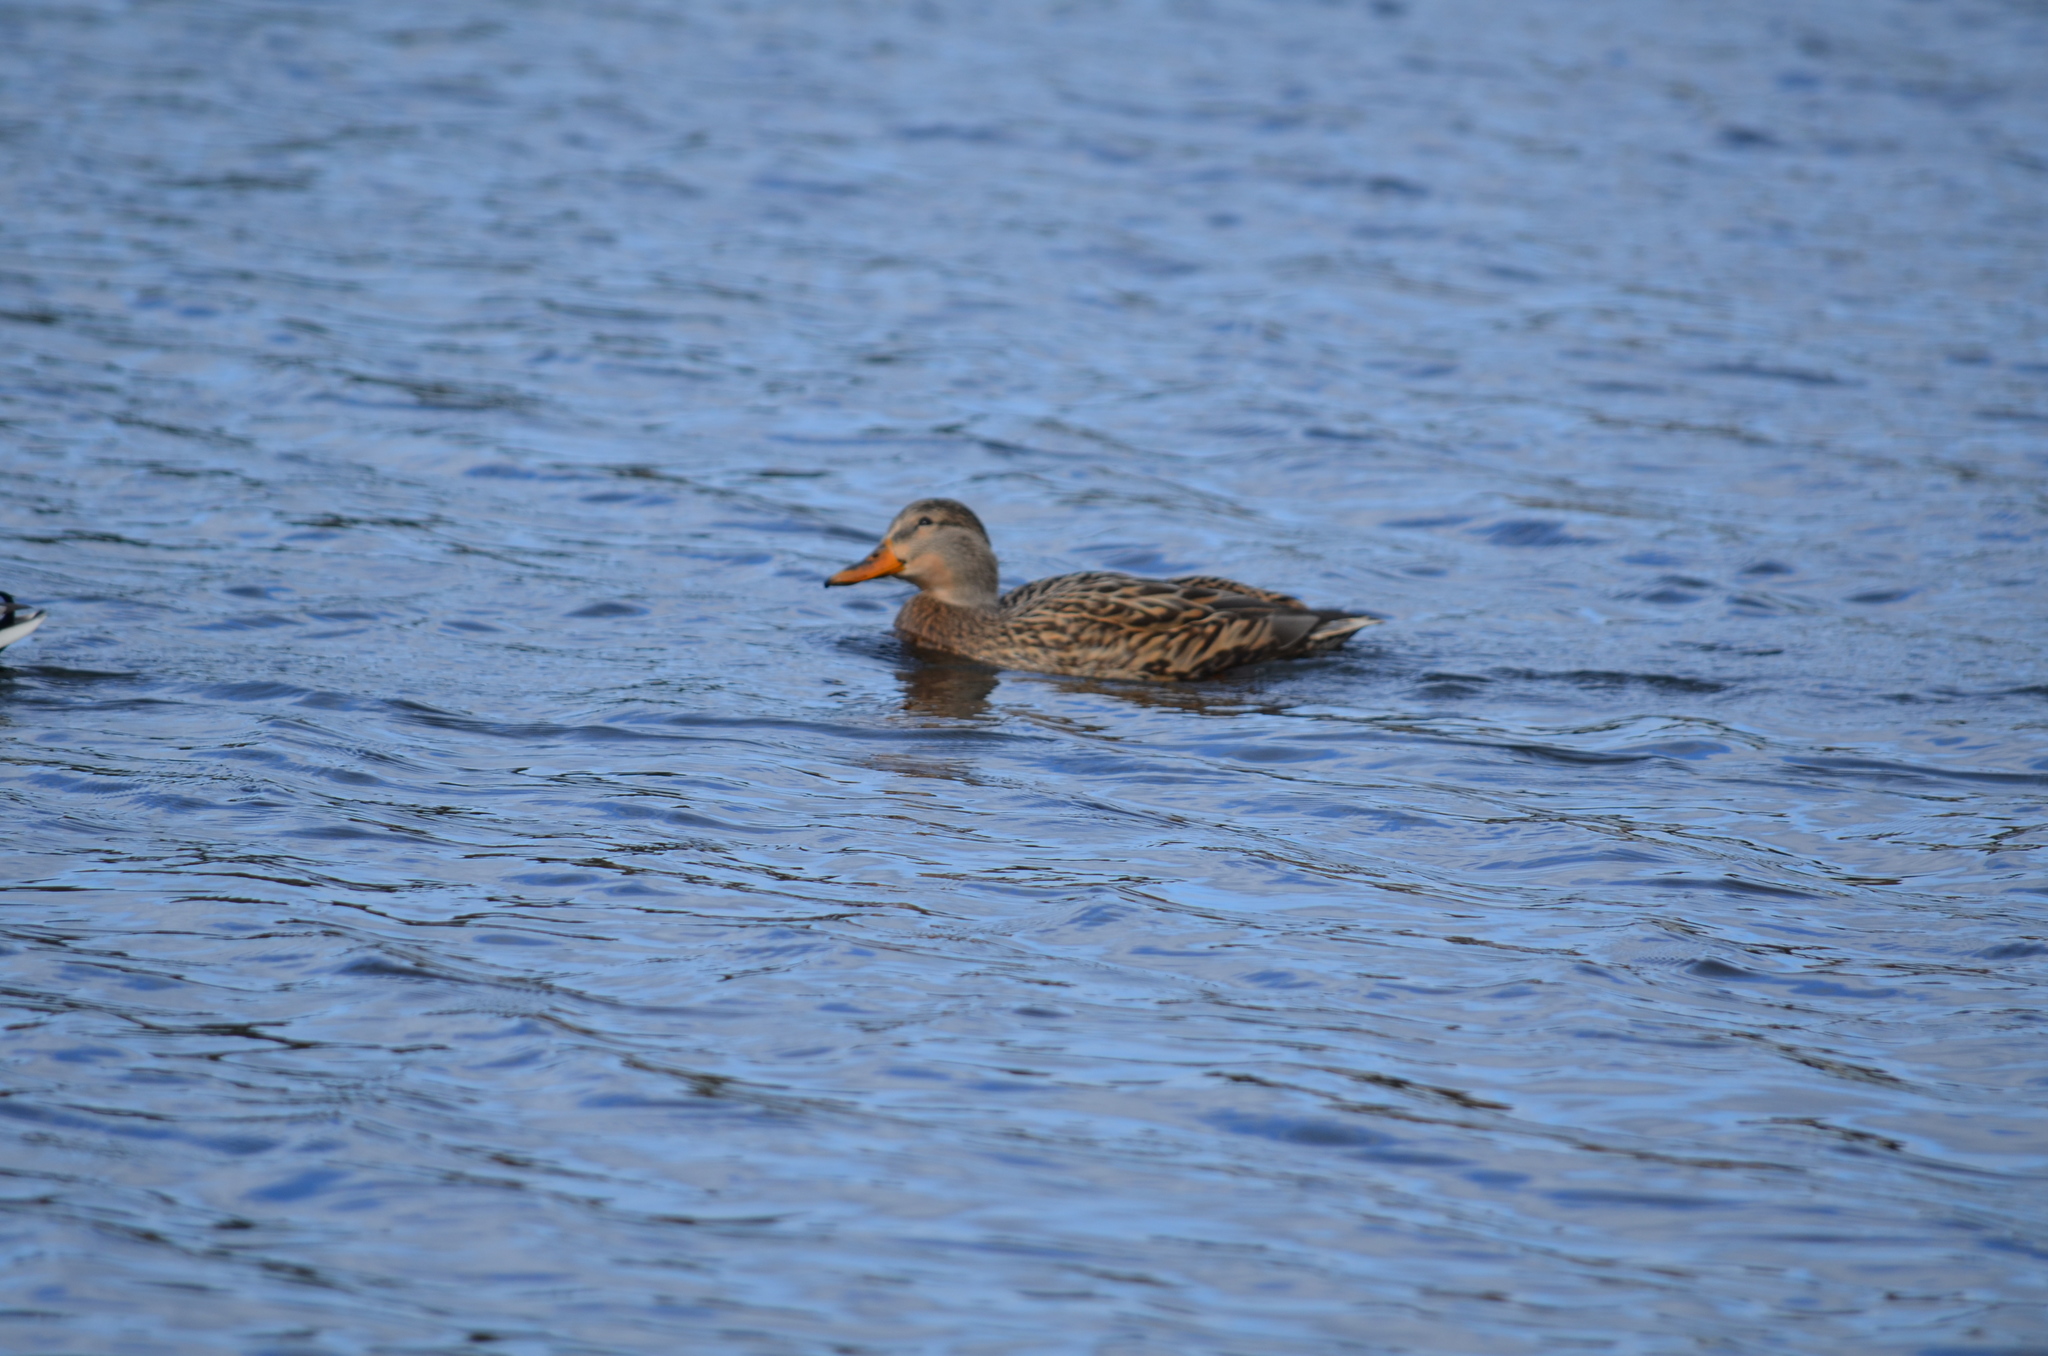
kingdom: Animalia
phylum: Chordata
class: Aves
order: Anseriformes
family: Anatidae
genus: Anas
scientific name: Anas platyrhynchos
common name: Mallard
